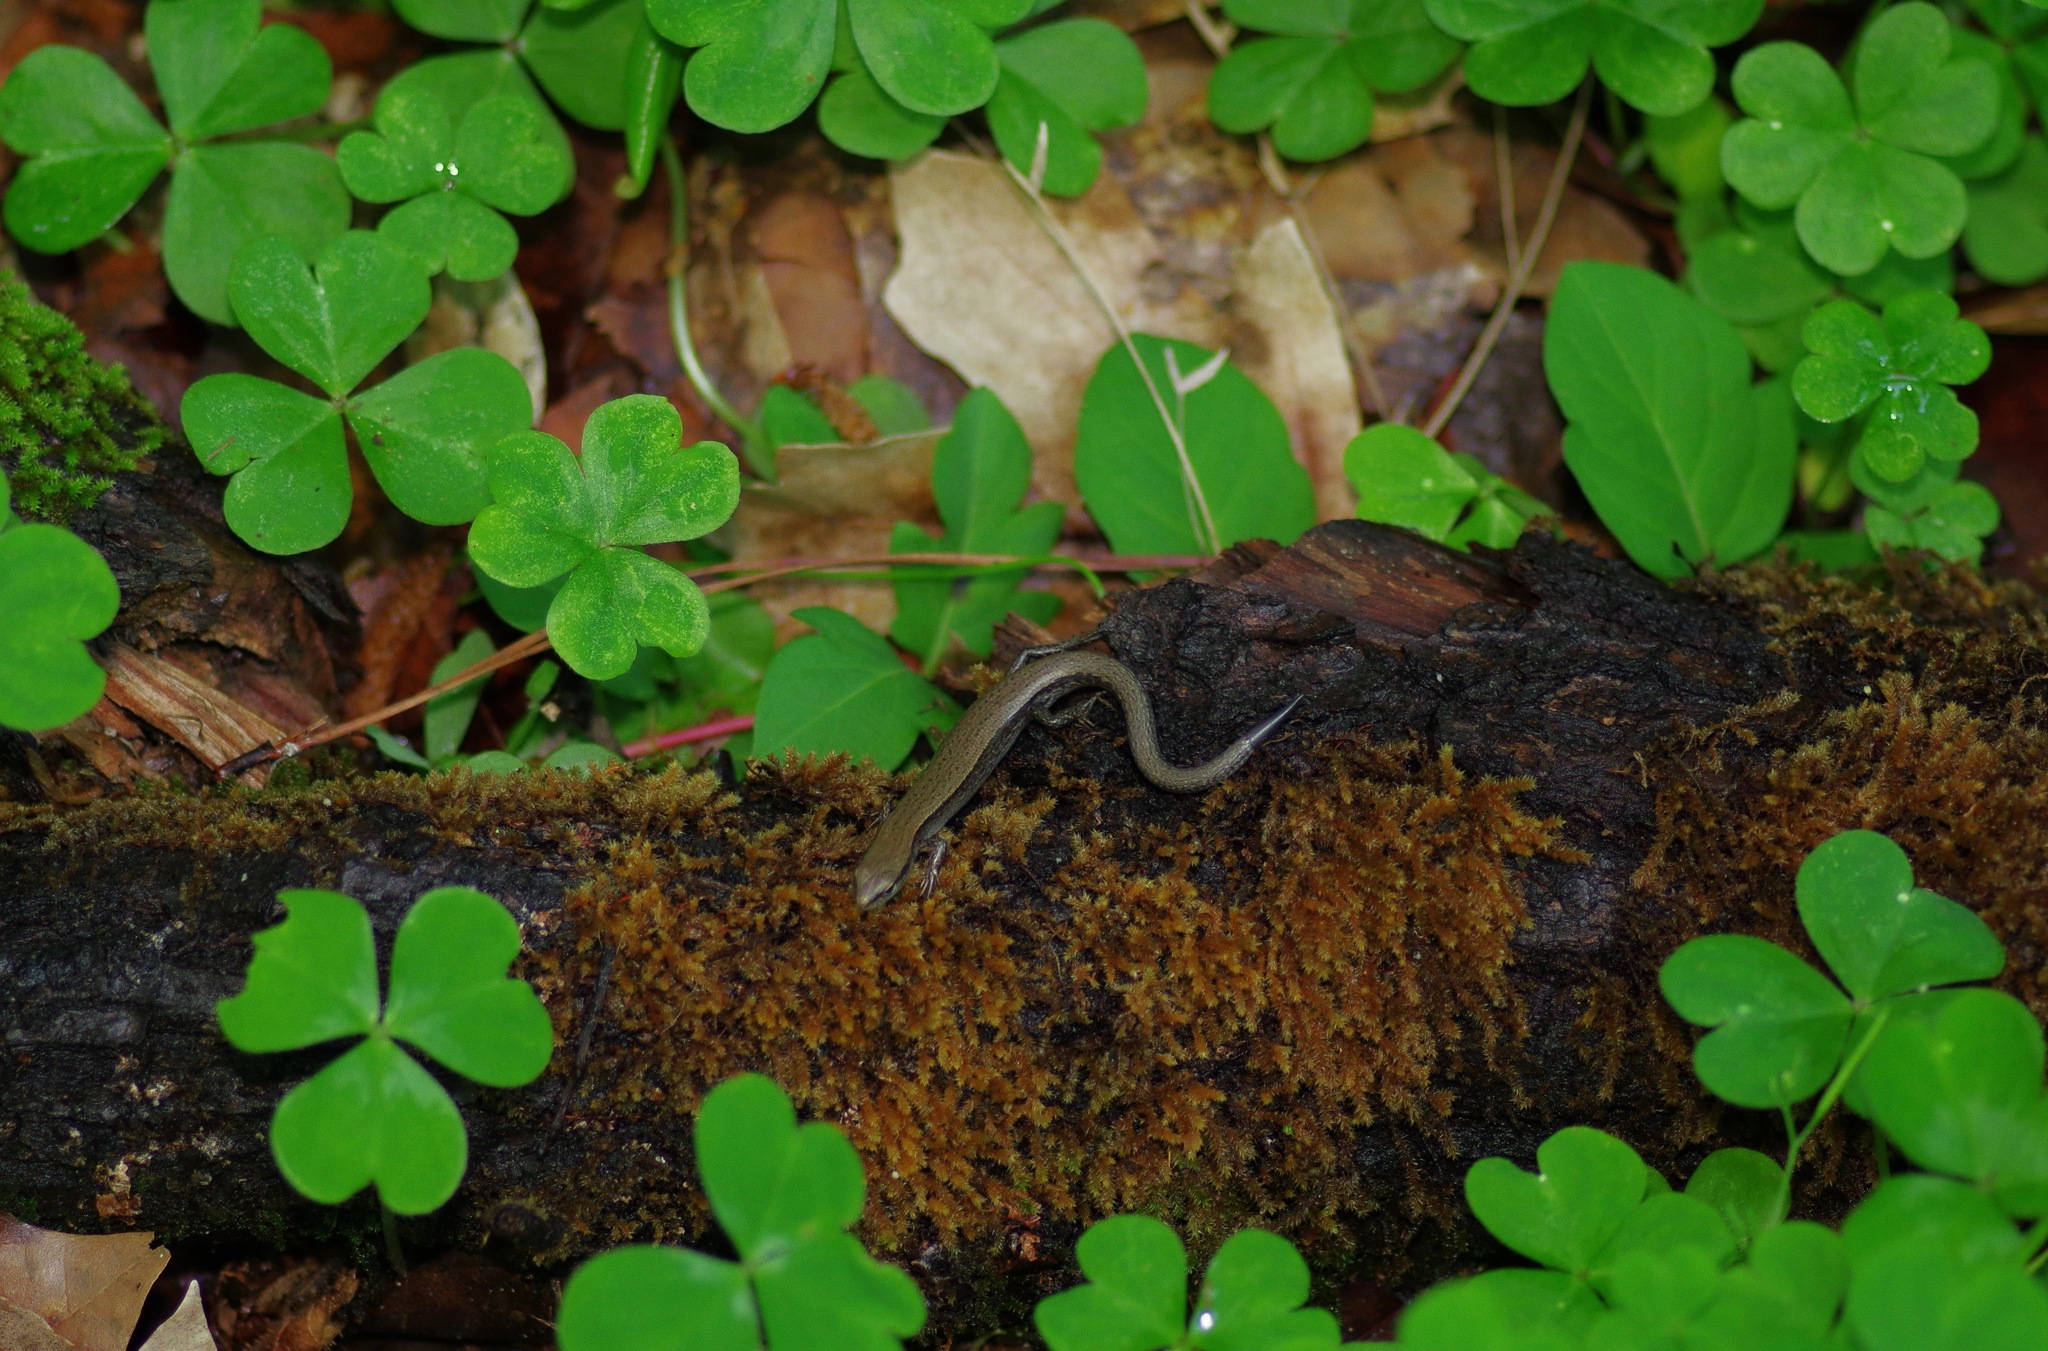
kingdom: Animalia
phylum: Chordata
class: Squamata
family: Scincidae
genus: Scincella
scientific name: Scincella lateralis
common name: Ground skink
